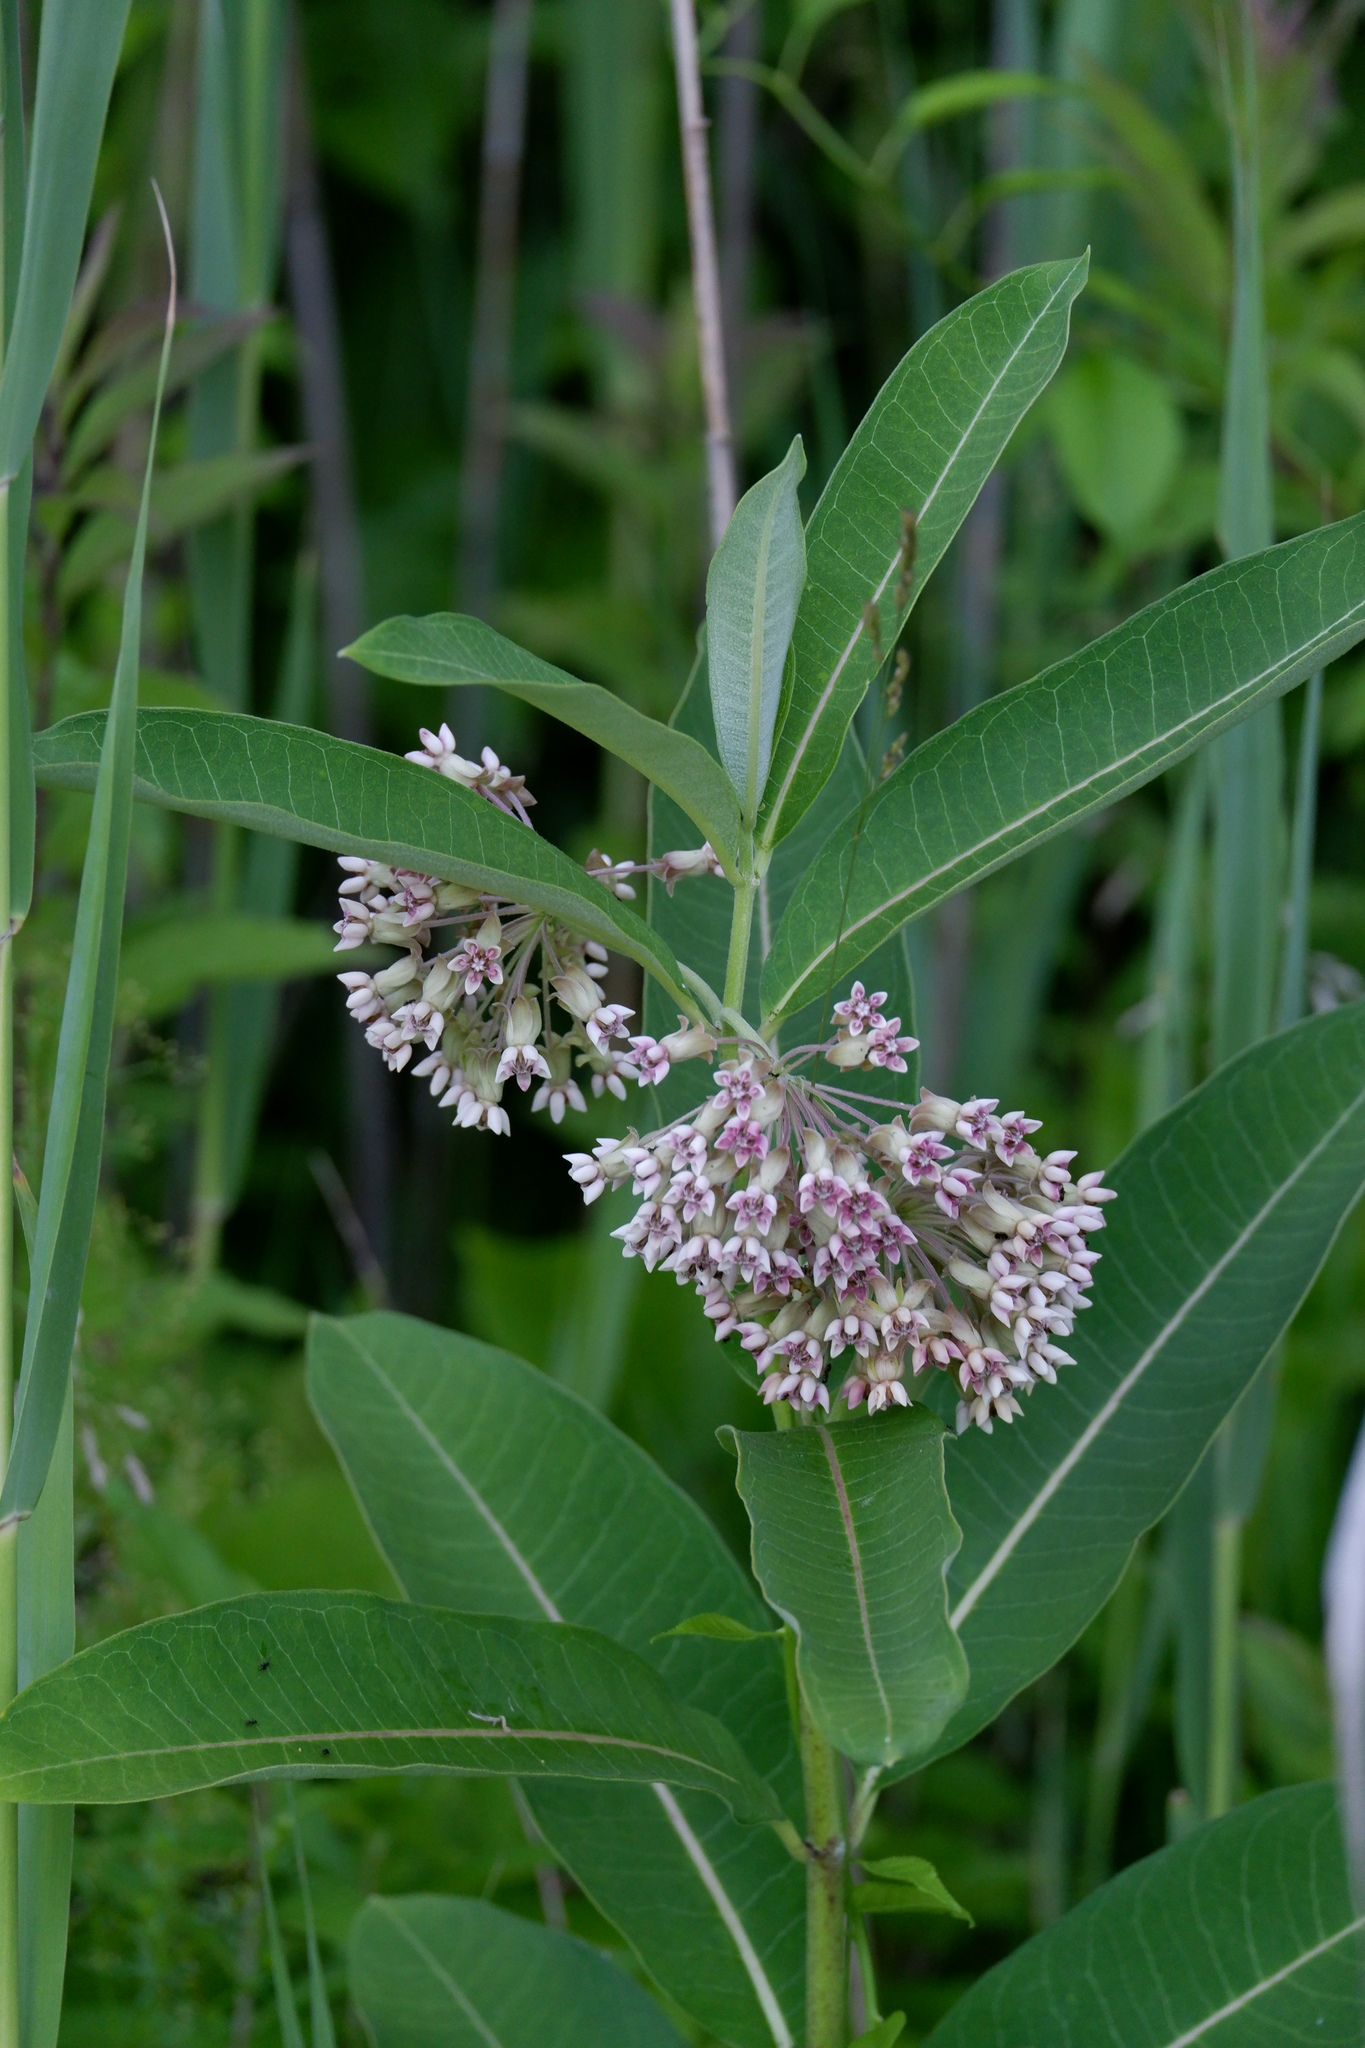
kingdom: Plantae
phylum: Tracheophyta
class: Magnoliopsida
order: Gentianales
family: Apocynaceae
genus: Asclepias
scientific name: Asclepias syriaca
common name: Common milkweed
